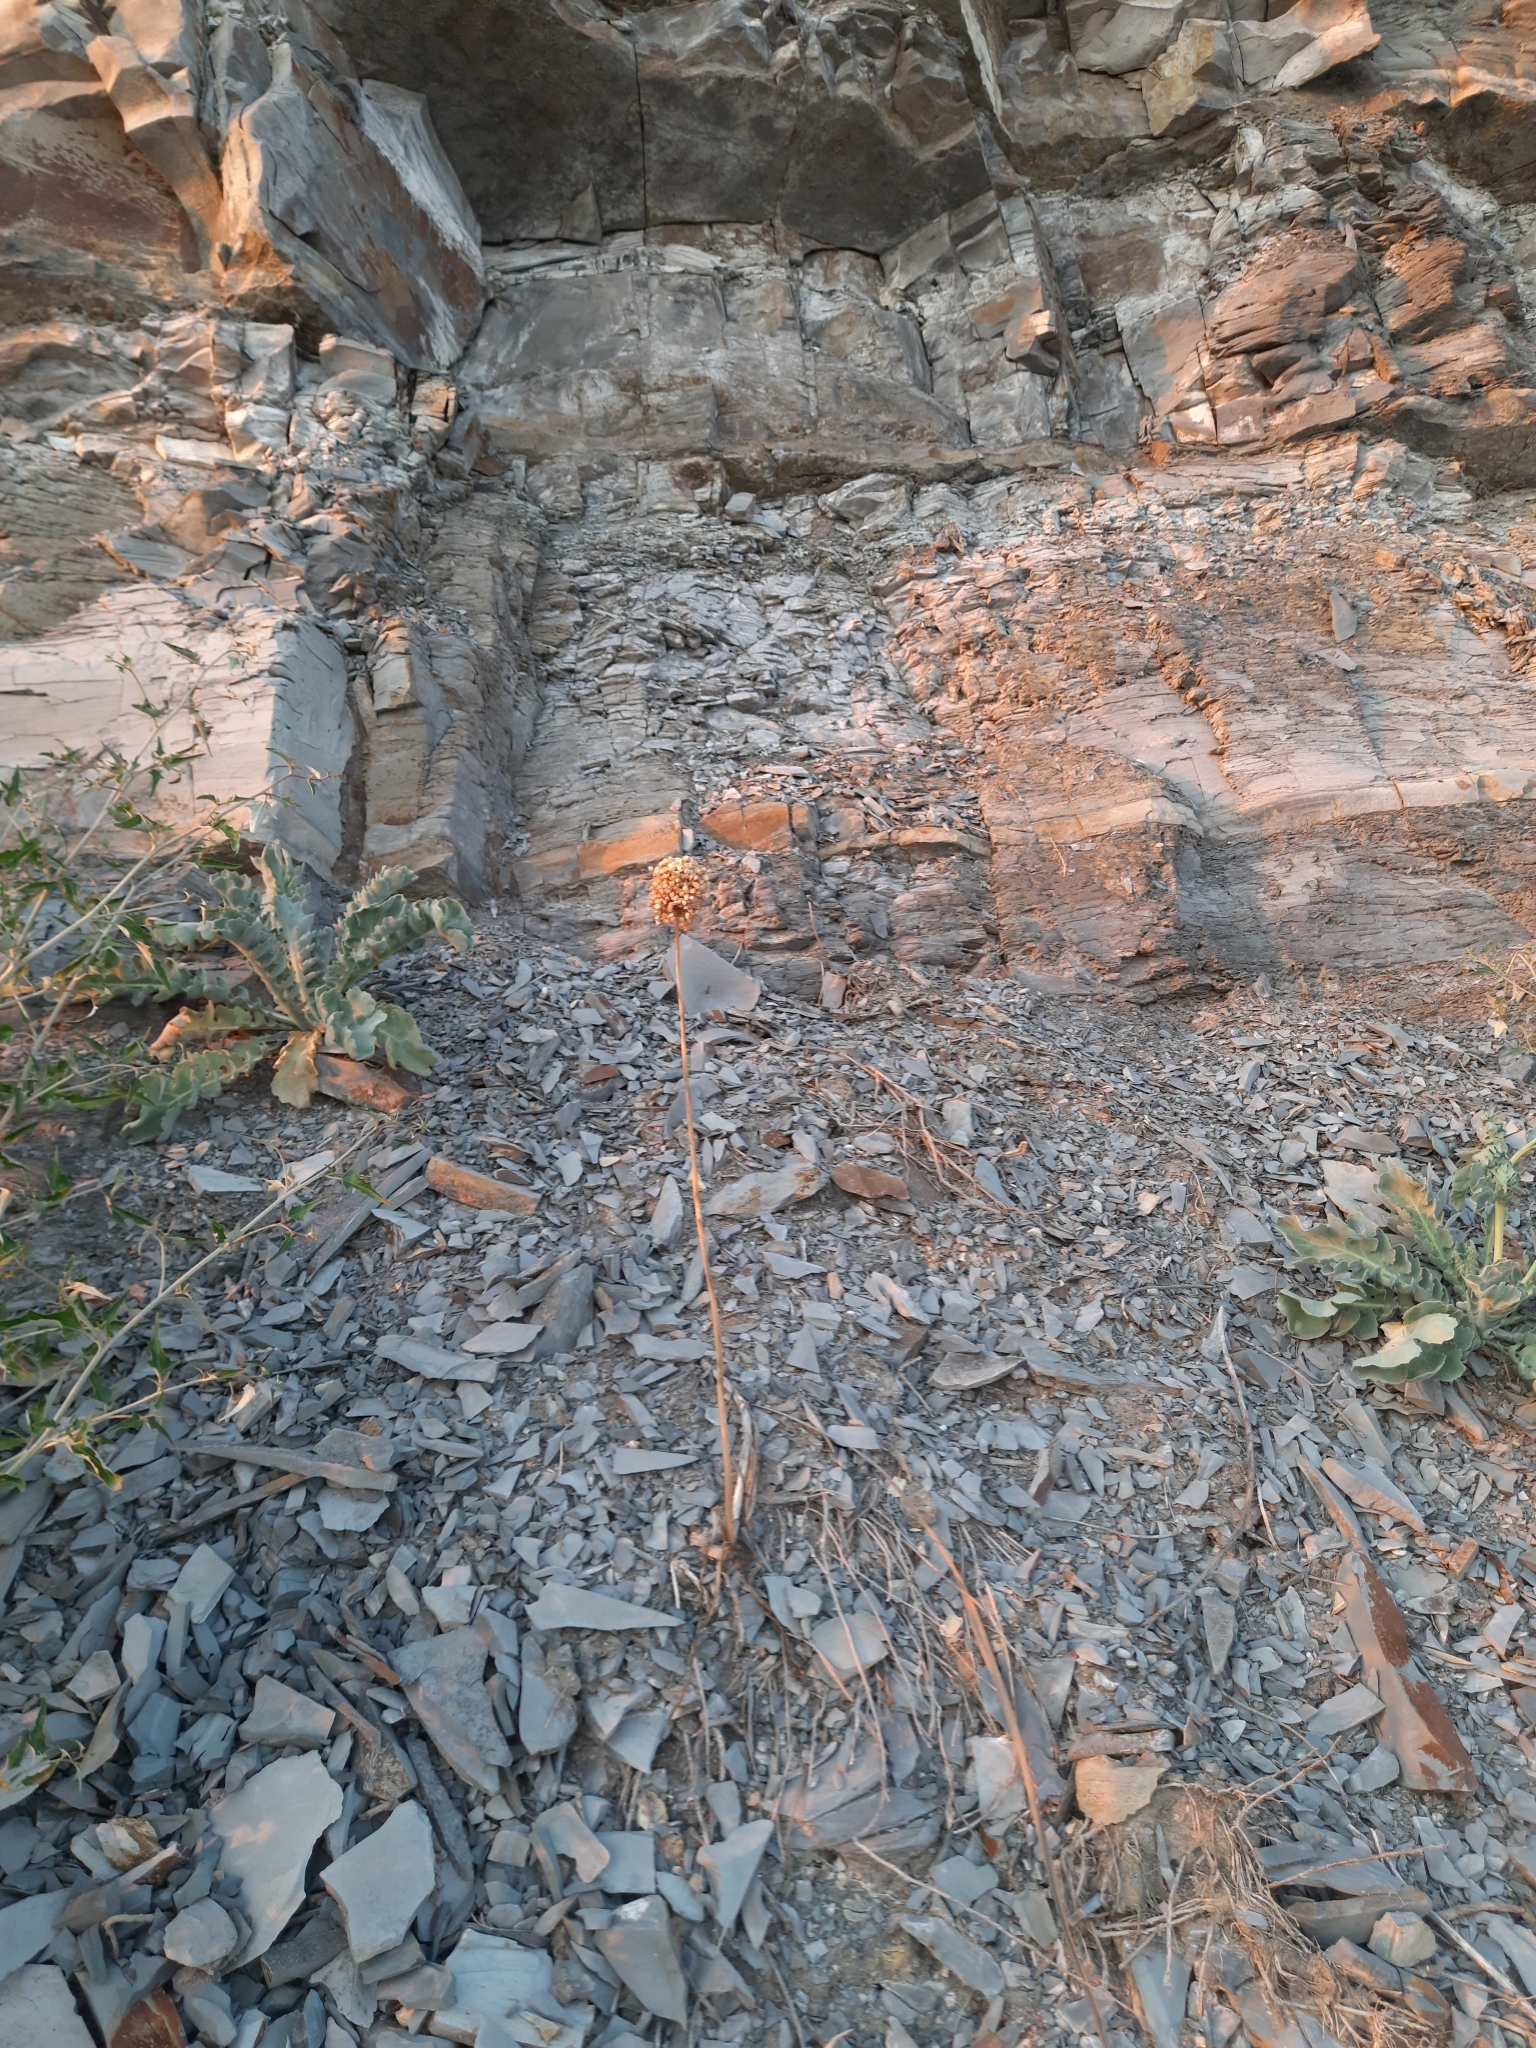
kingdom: Plantae
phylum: Tracheophyta
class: Liliopsida
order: Asparagales
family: Amaryllidaceae
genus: Allium
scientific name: Allium atroviolaceum
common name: Broadleaf wild leek
